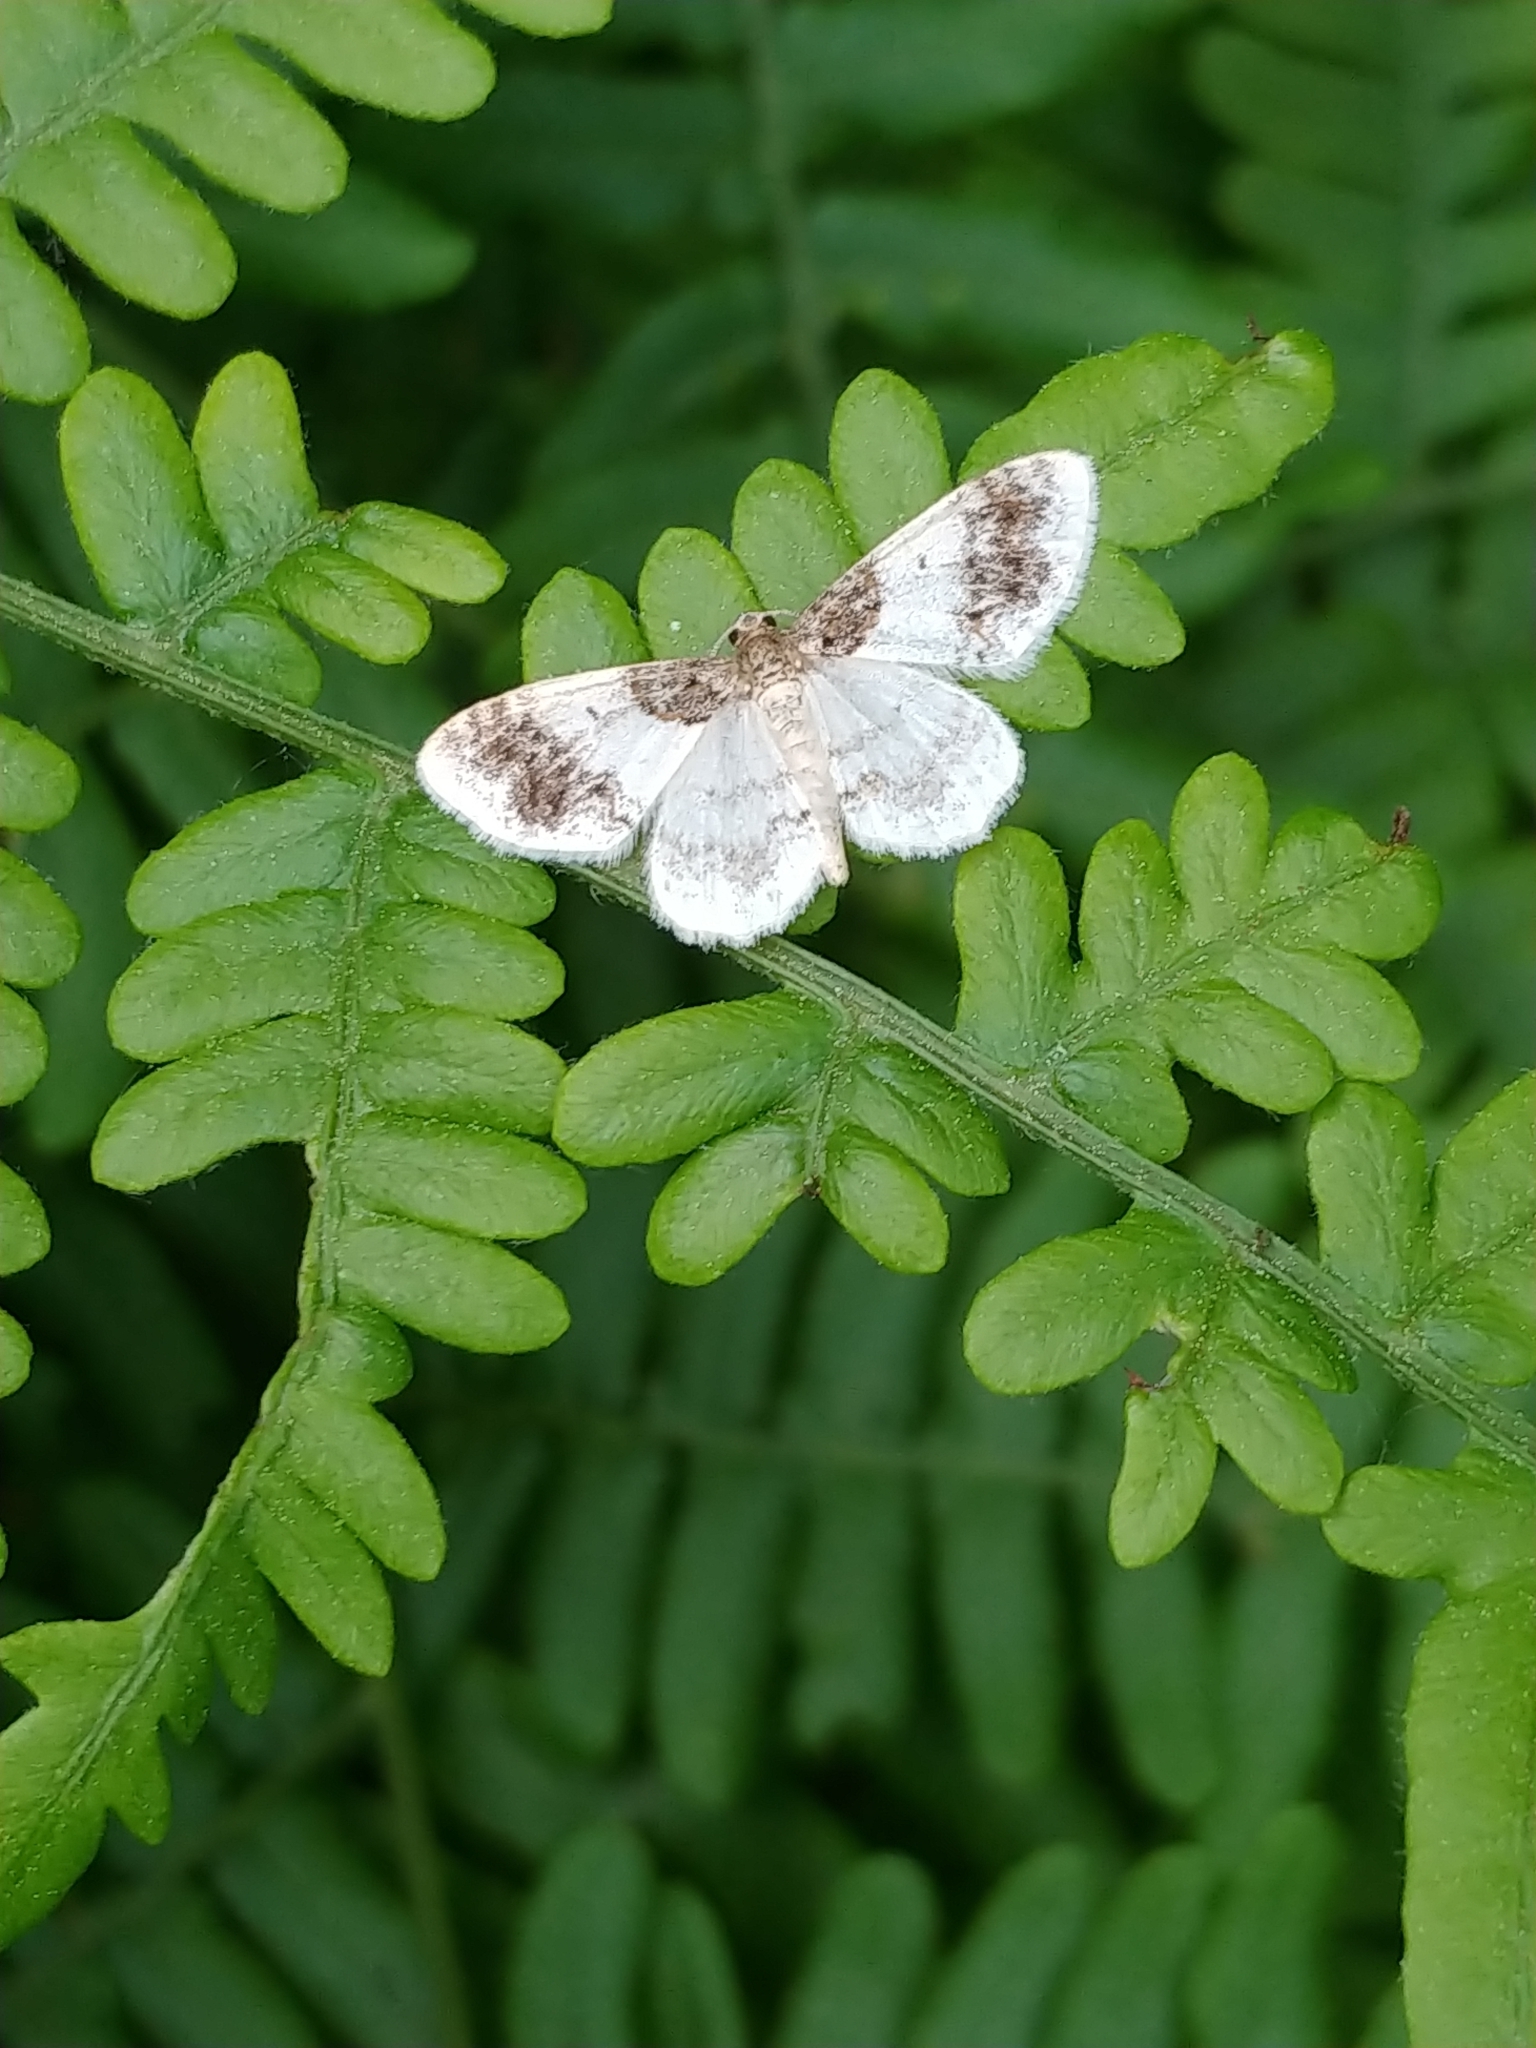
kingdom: Animalia
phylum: Arthropoda
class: Insecta
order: Lepidoptera
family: Geometridae
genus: Hydrelia
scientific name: Hydrelia condensata
